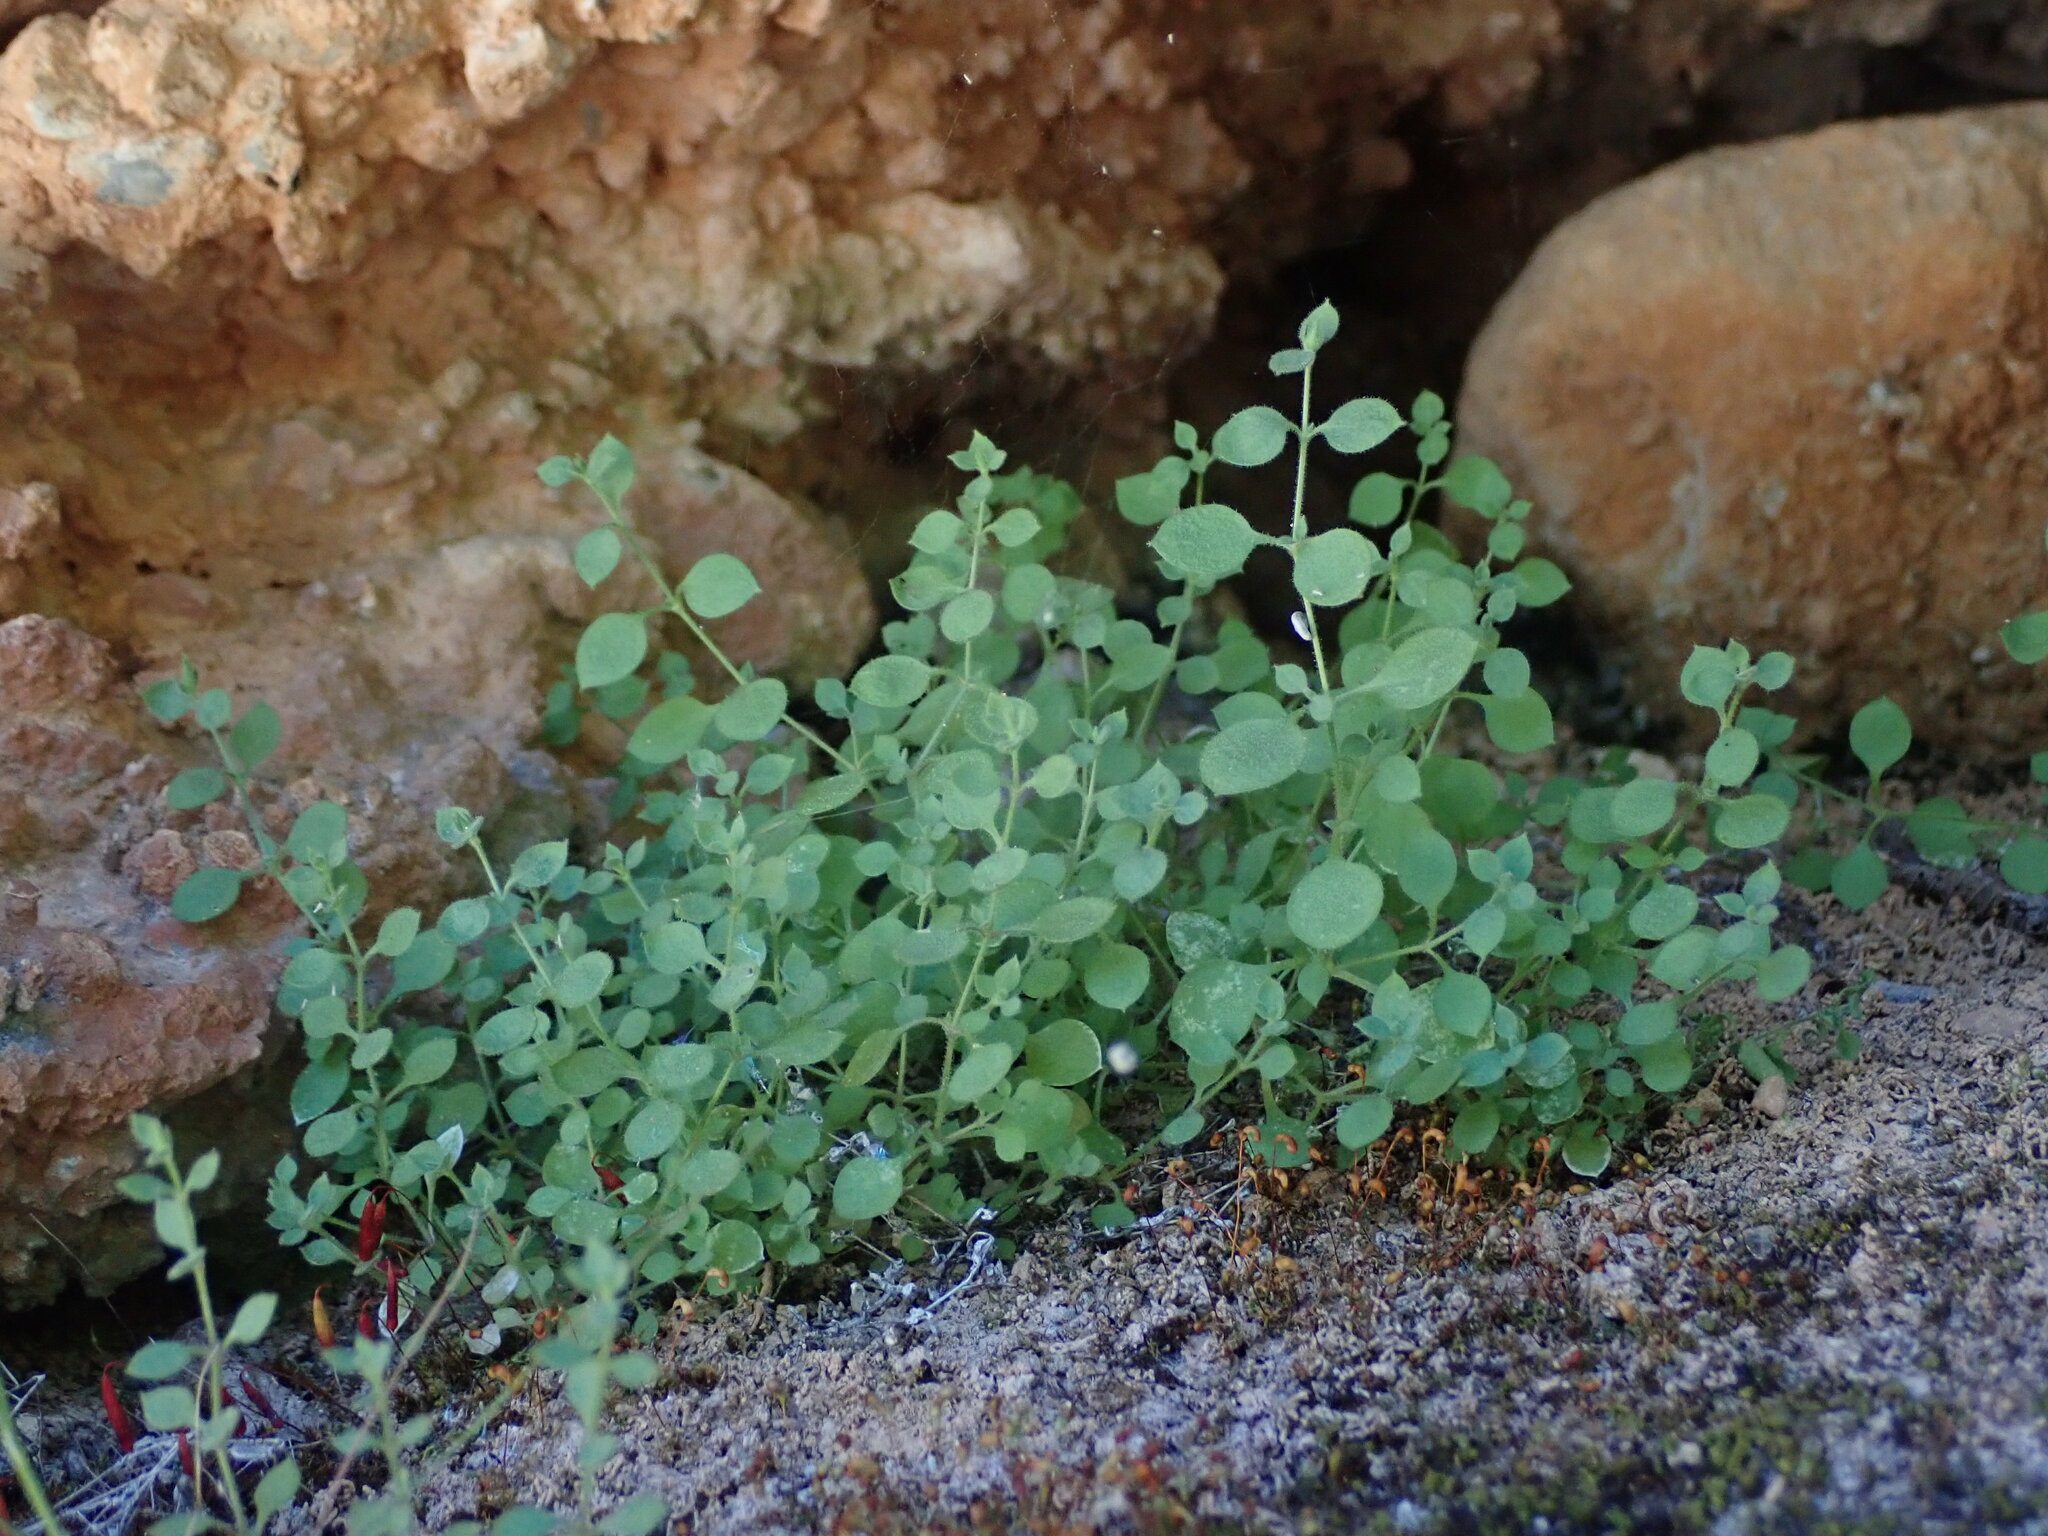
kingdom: Plantae
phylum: Tracheophyta
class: Magnoliopsida
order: Caryophyllales
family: Caryophyllaceae
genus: Arenaria
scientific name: Arenaria orbicularis
